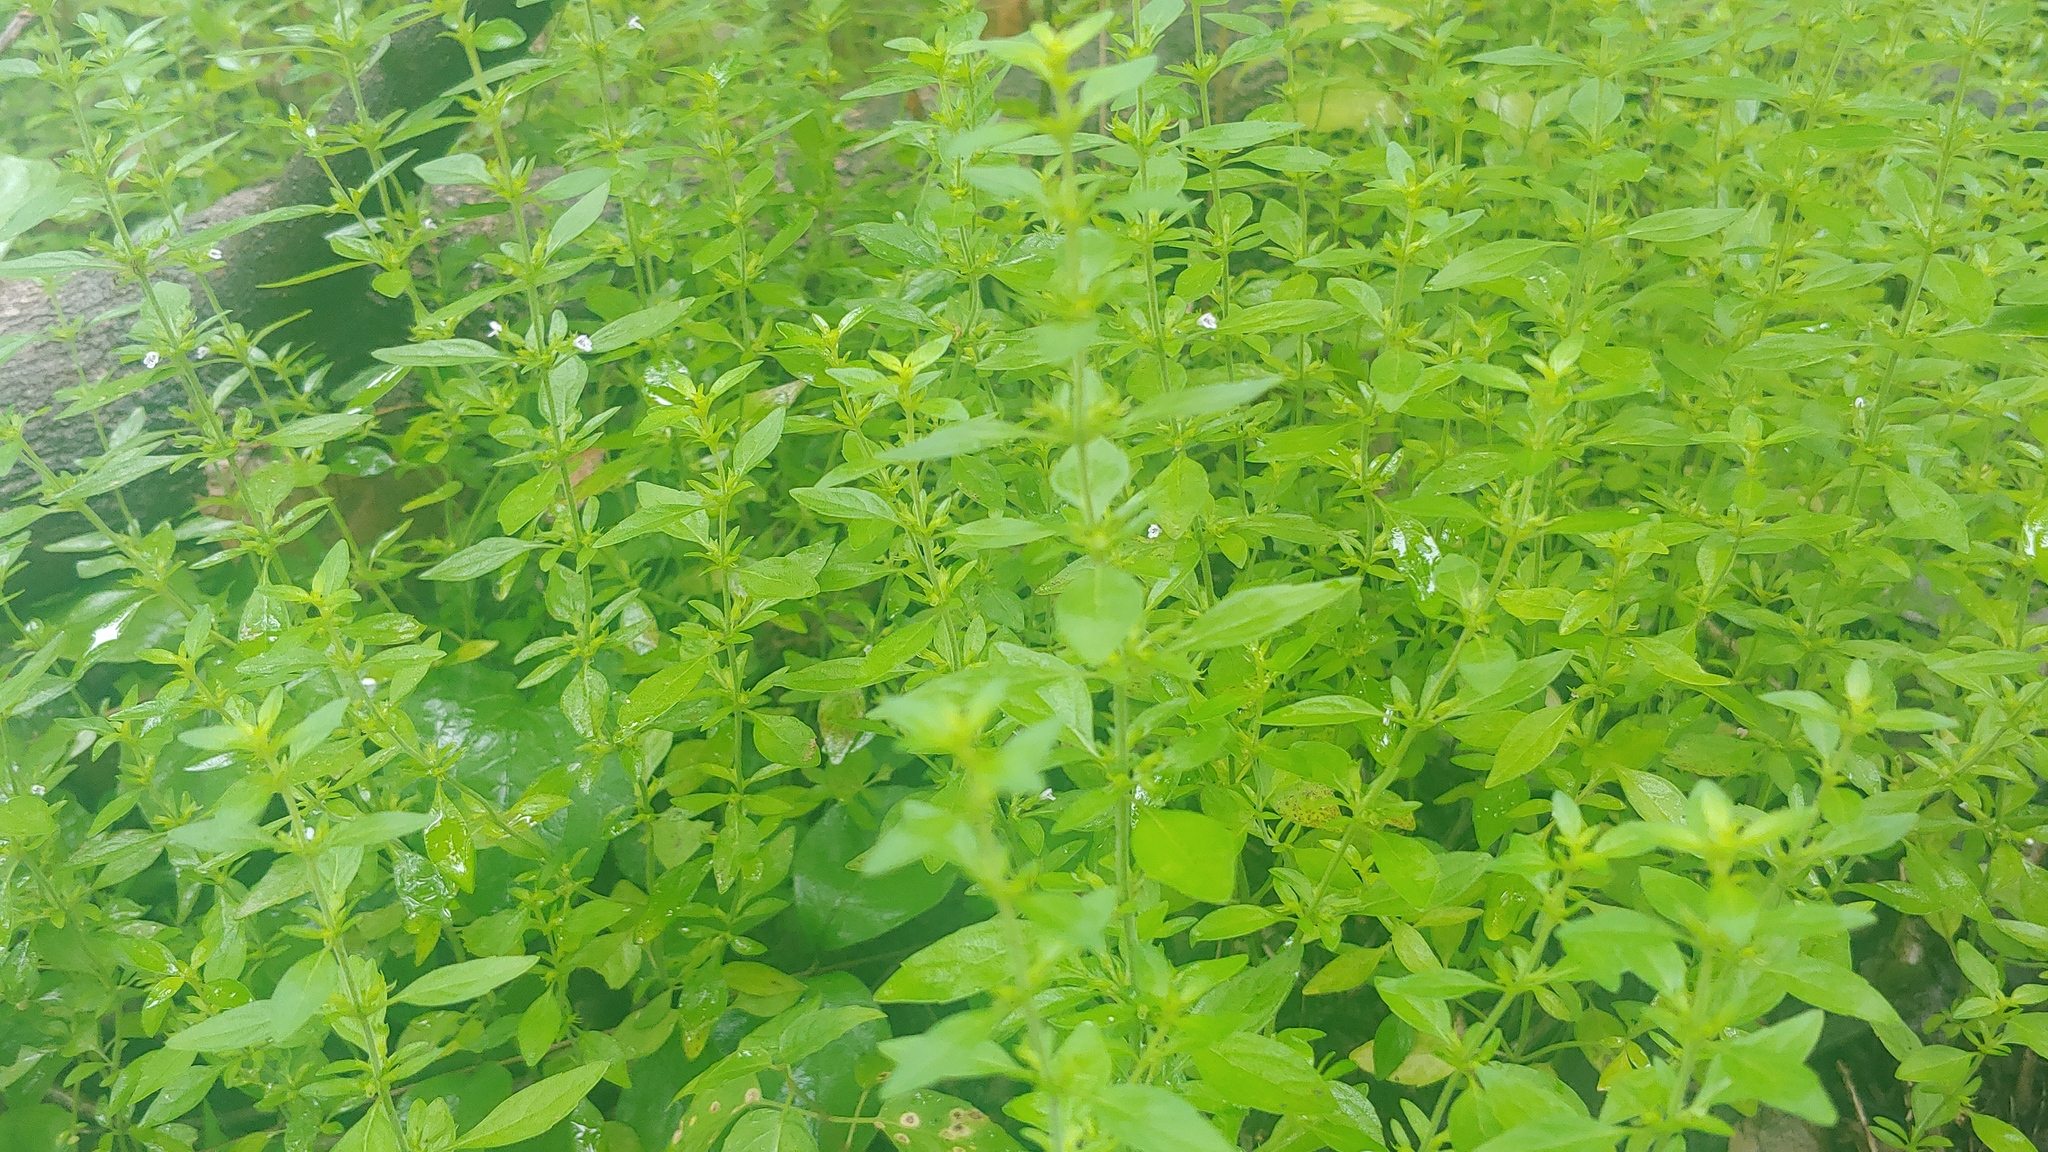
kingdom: Plantae
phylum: Tracheophyta
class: Magnoliopsida
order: Lamiales
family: Lamiaceae
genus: Hedeoma
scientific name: Hedeoma pulegioides
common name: American false pennyroyal
